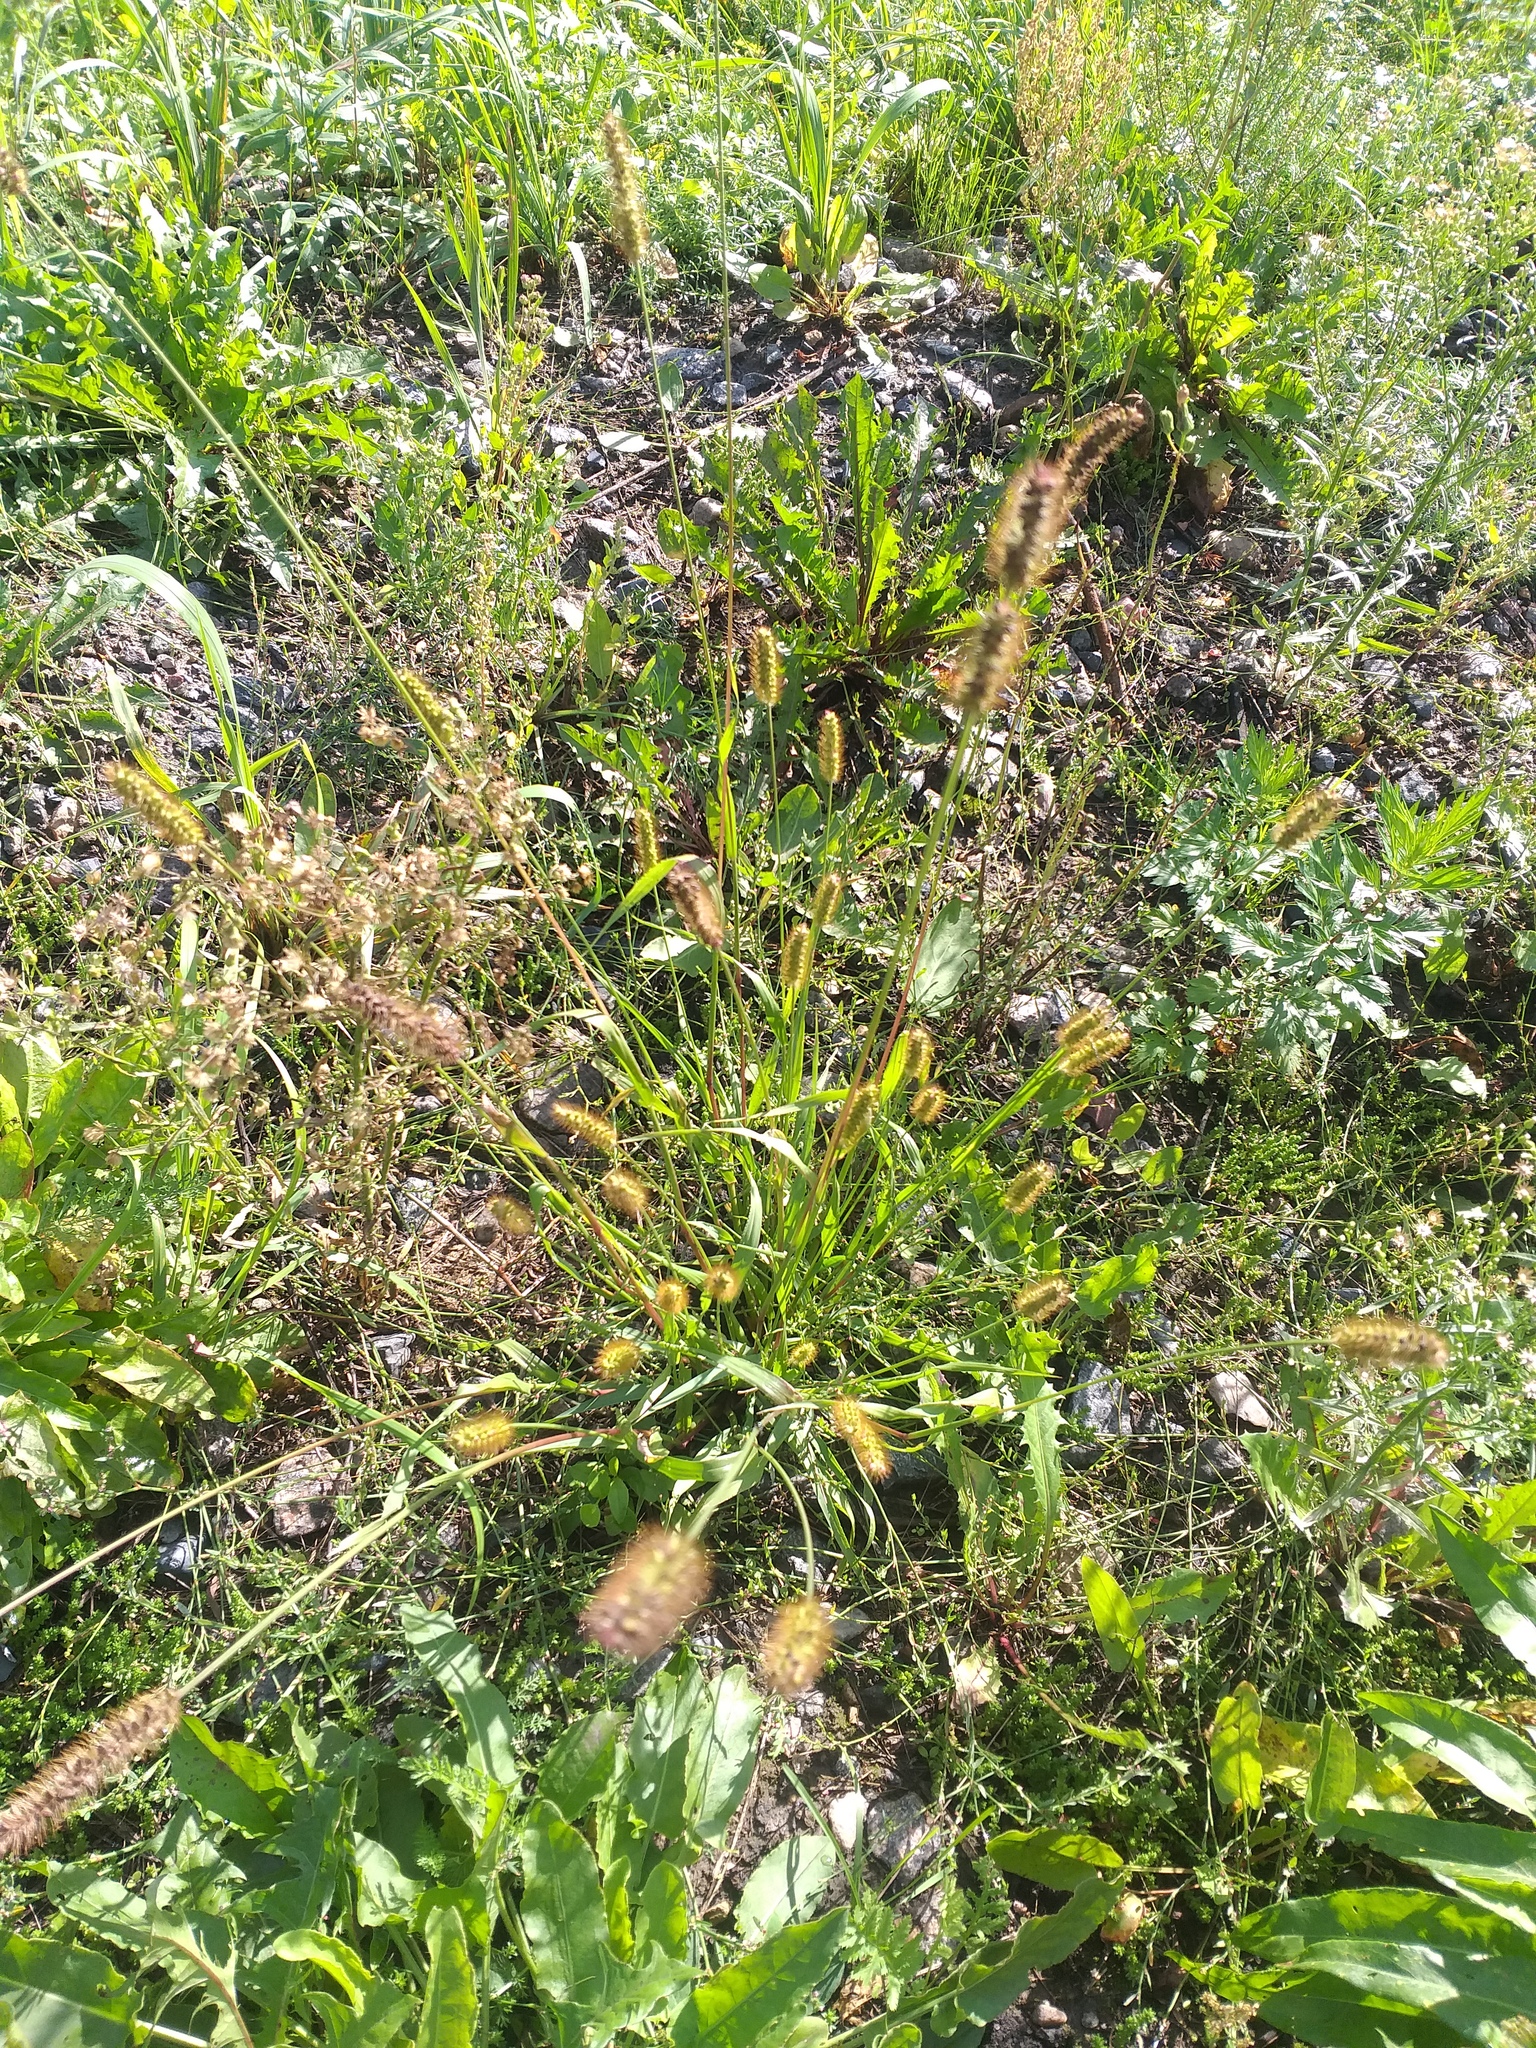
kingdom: Plantae
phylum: Tracheophyta
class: Liliopsida
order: Poales
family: Poaceae
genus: Setaria
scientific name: Setaria pumila
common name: Yellow bristle-grass
